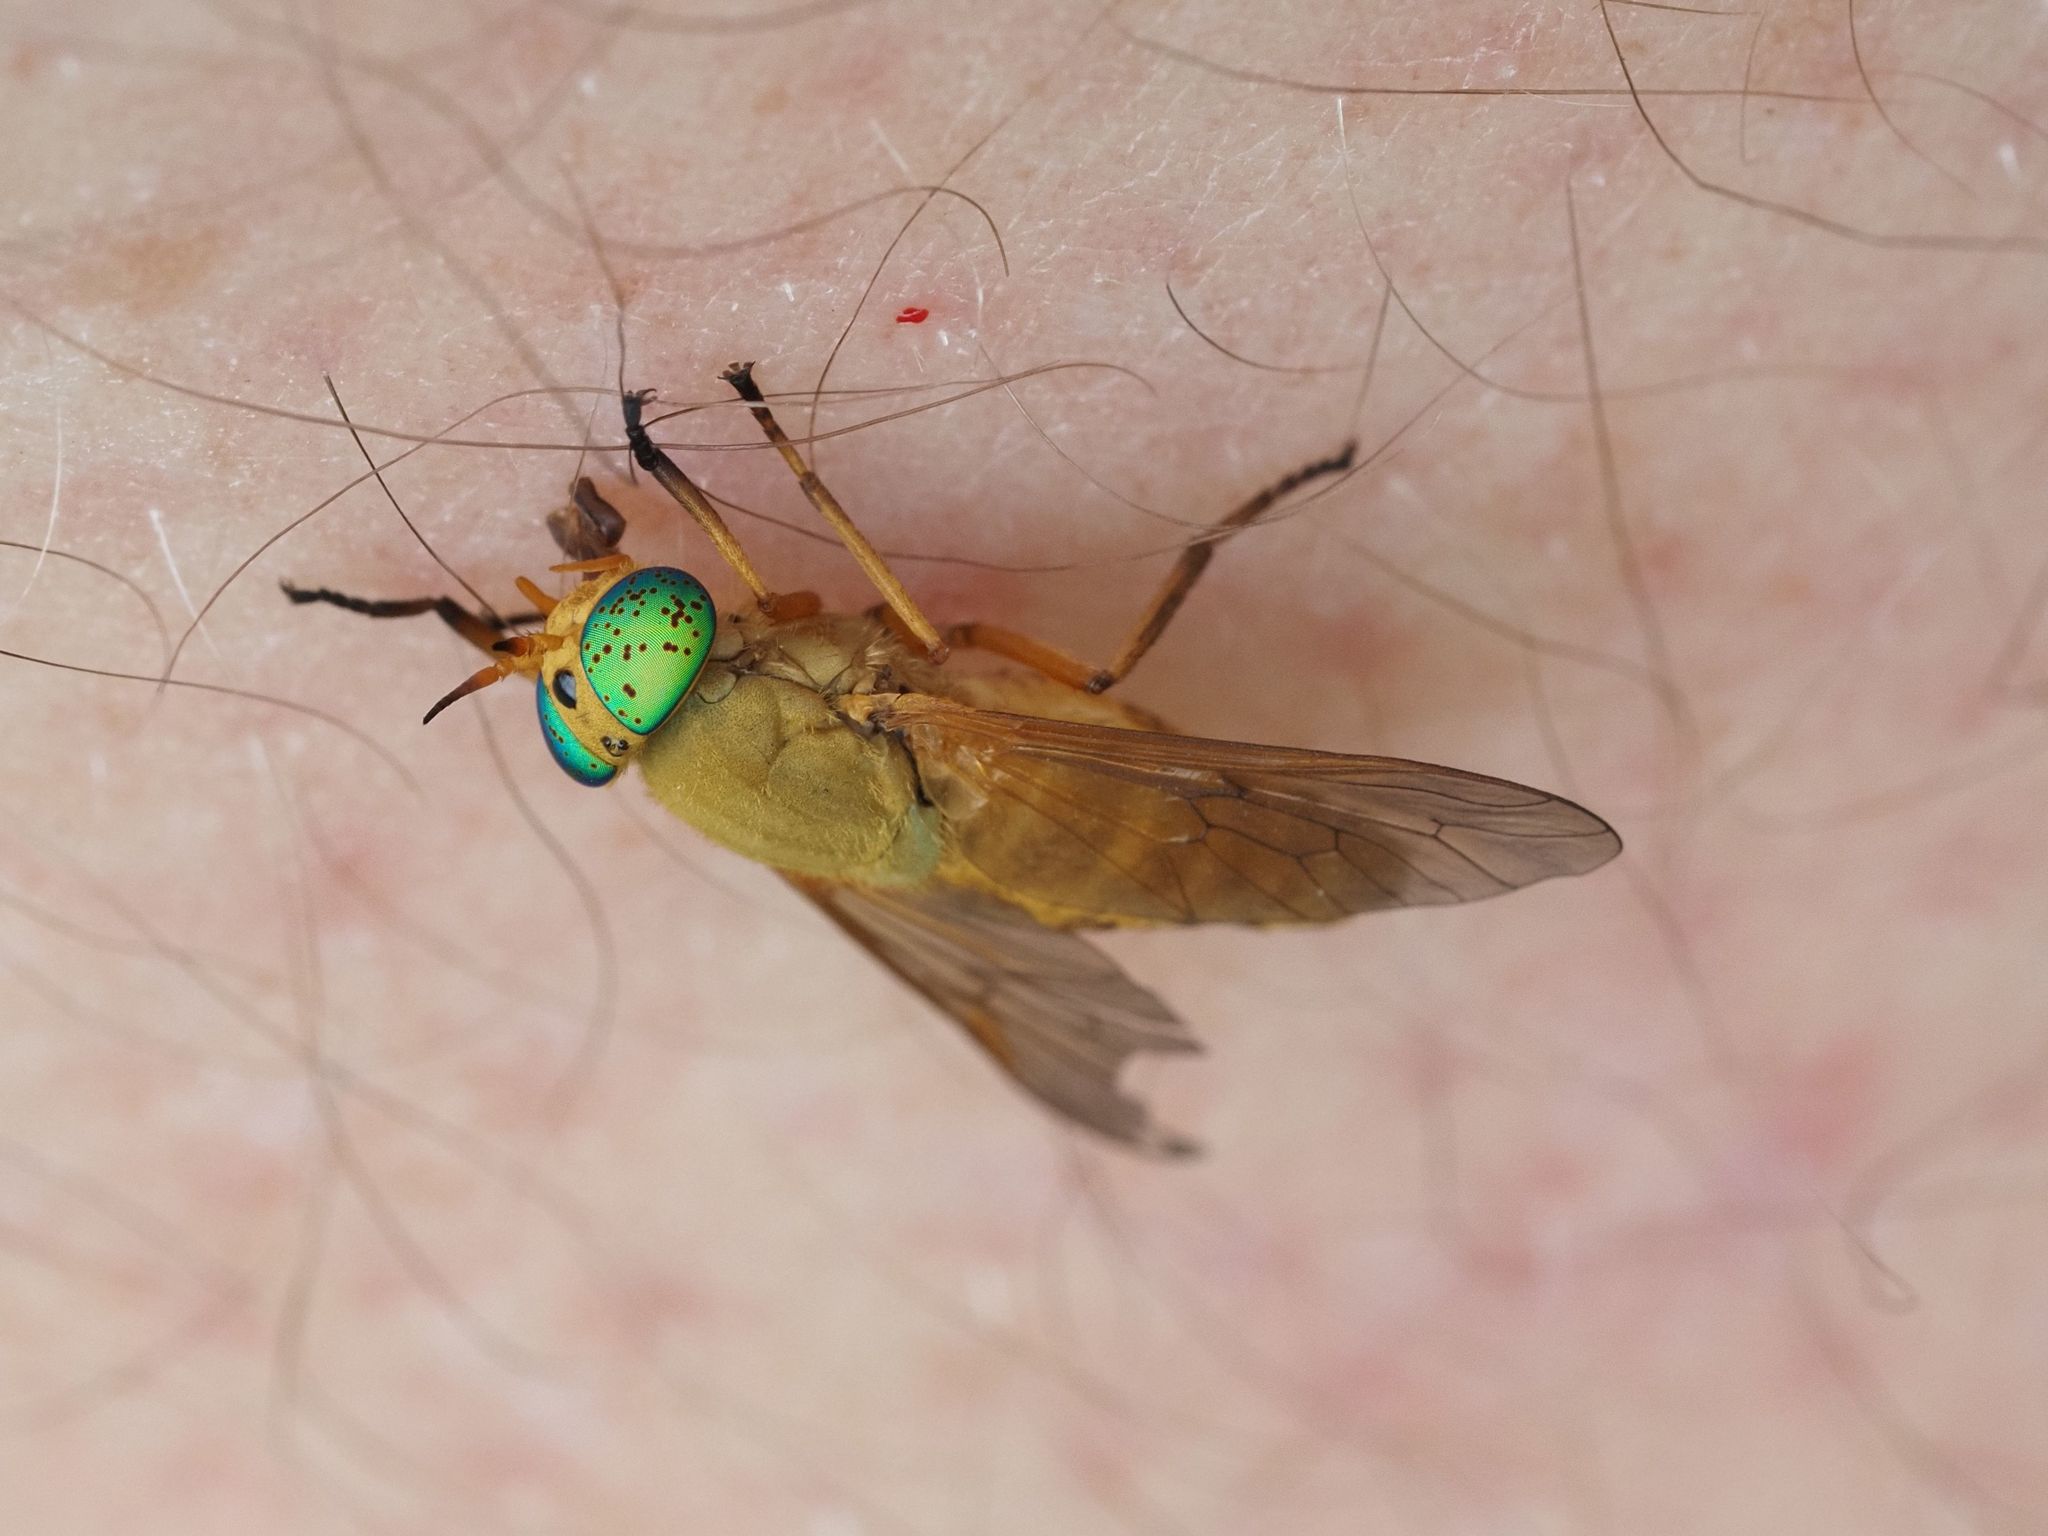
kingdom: Animalia
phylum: Arthropoda
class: Insecta
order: Diptera
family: Tabanidae
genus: Silvius
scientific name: Silvius alpinus
